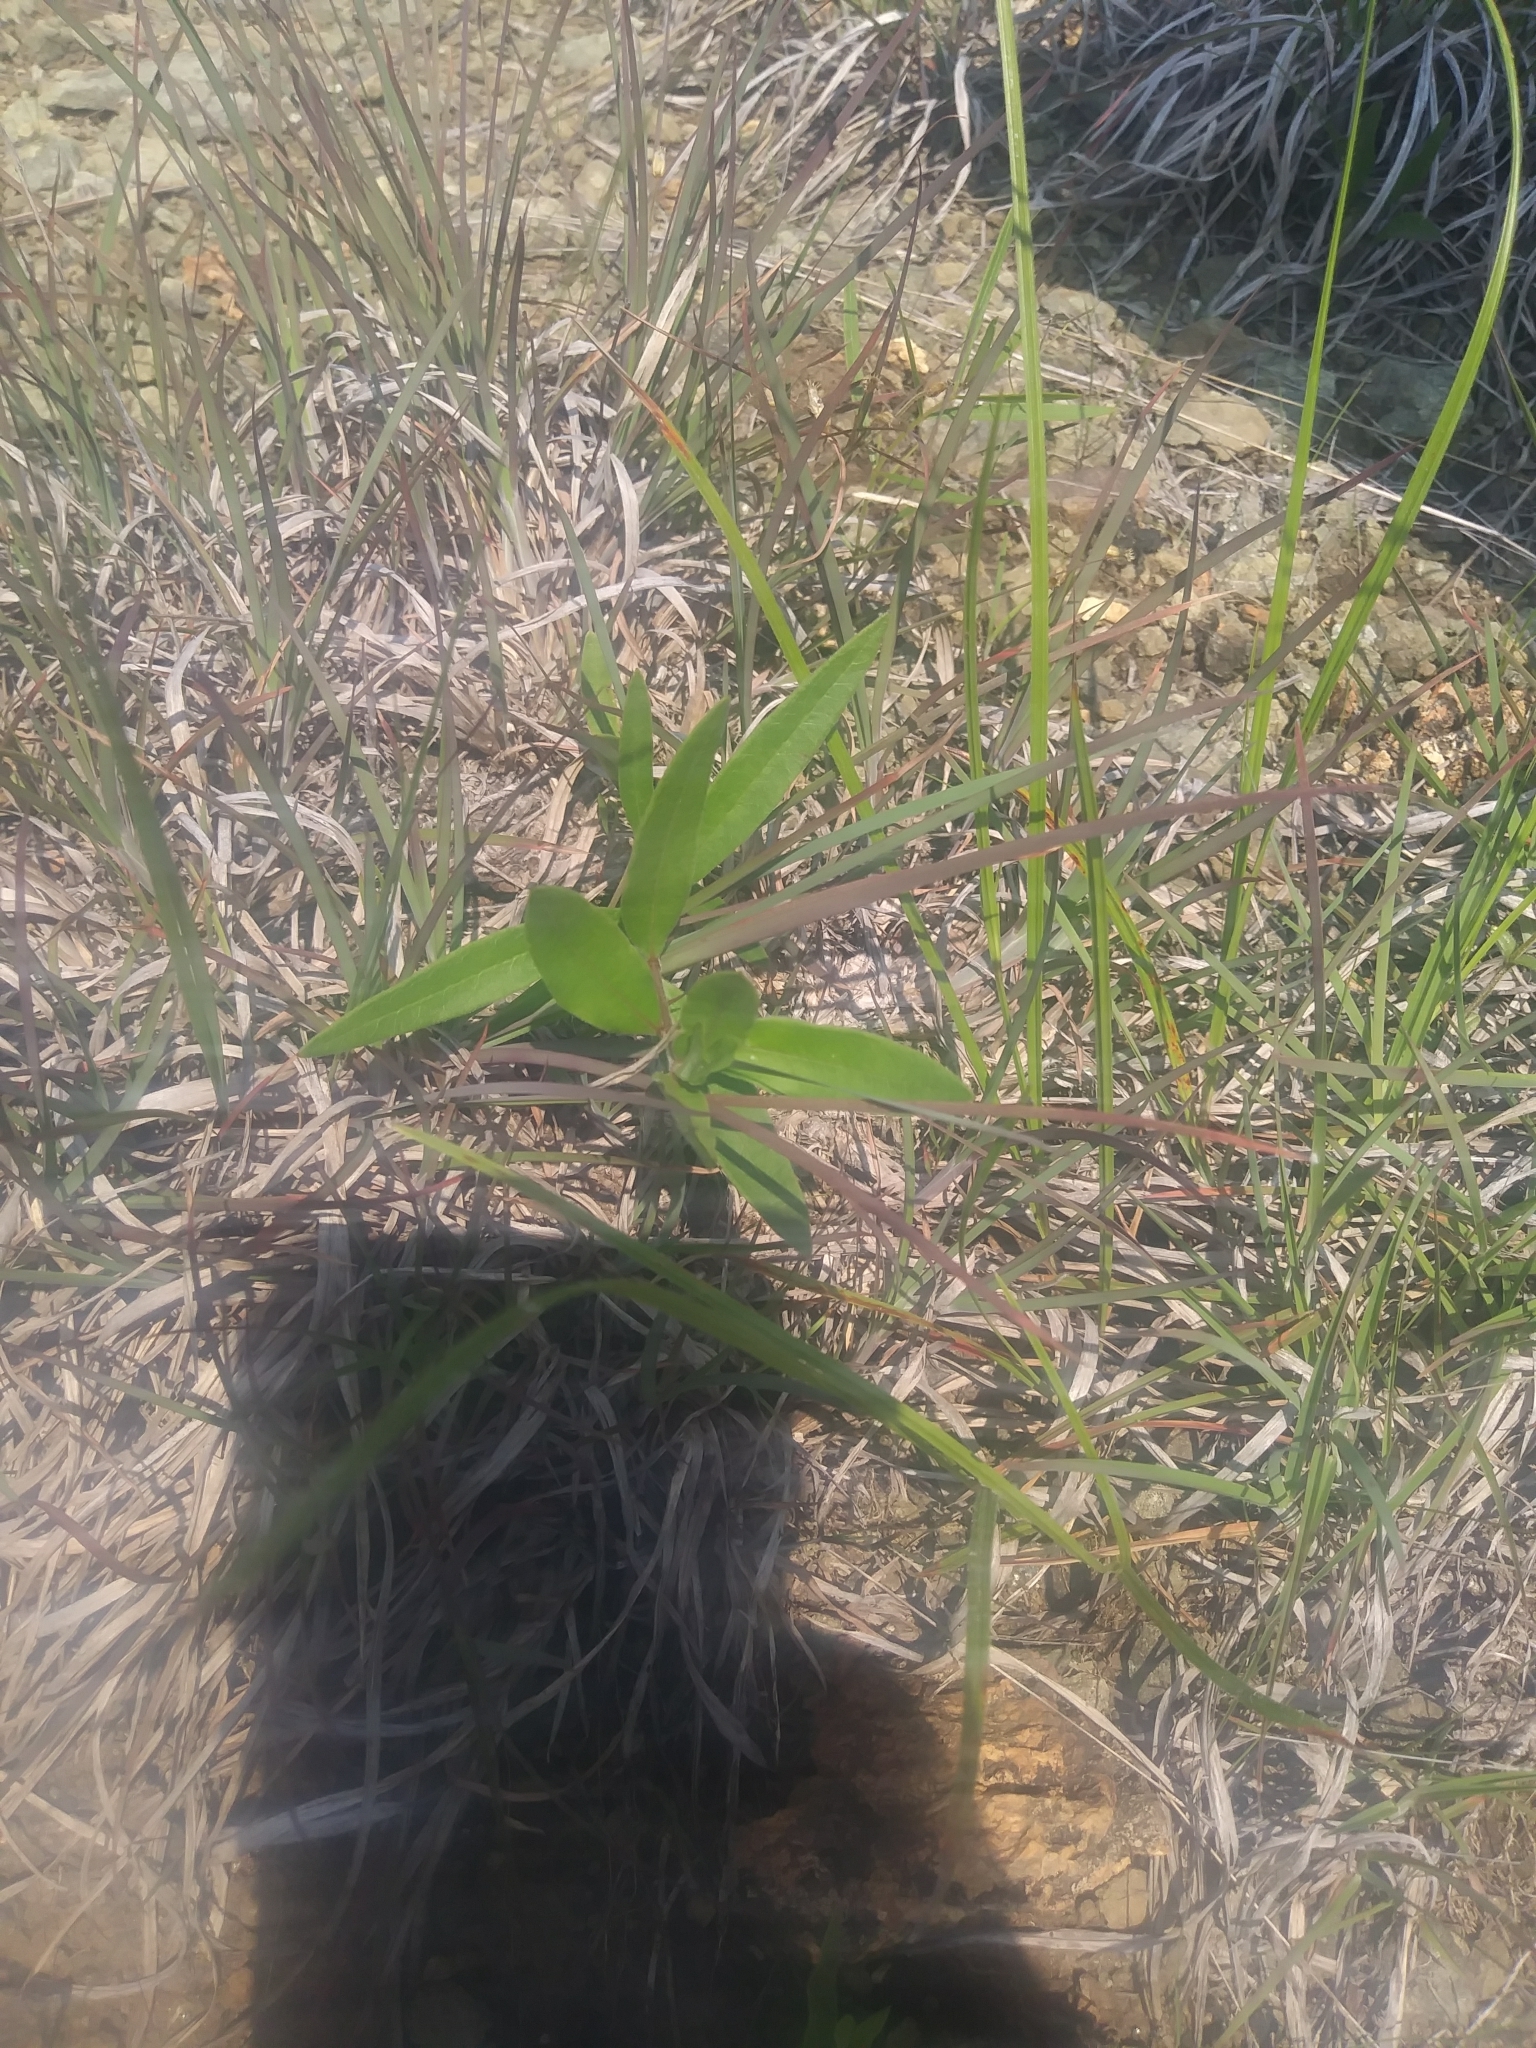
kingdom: Plantae
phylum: Tracheophyta
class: Magnoliopsida
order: Gentianales
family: Apocynaceae
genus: Asclepias
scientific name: Asclepias viridiflora
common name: Green comet milkweed
